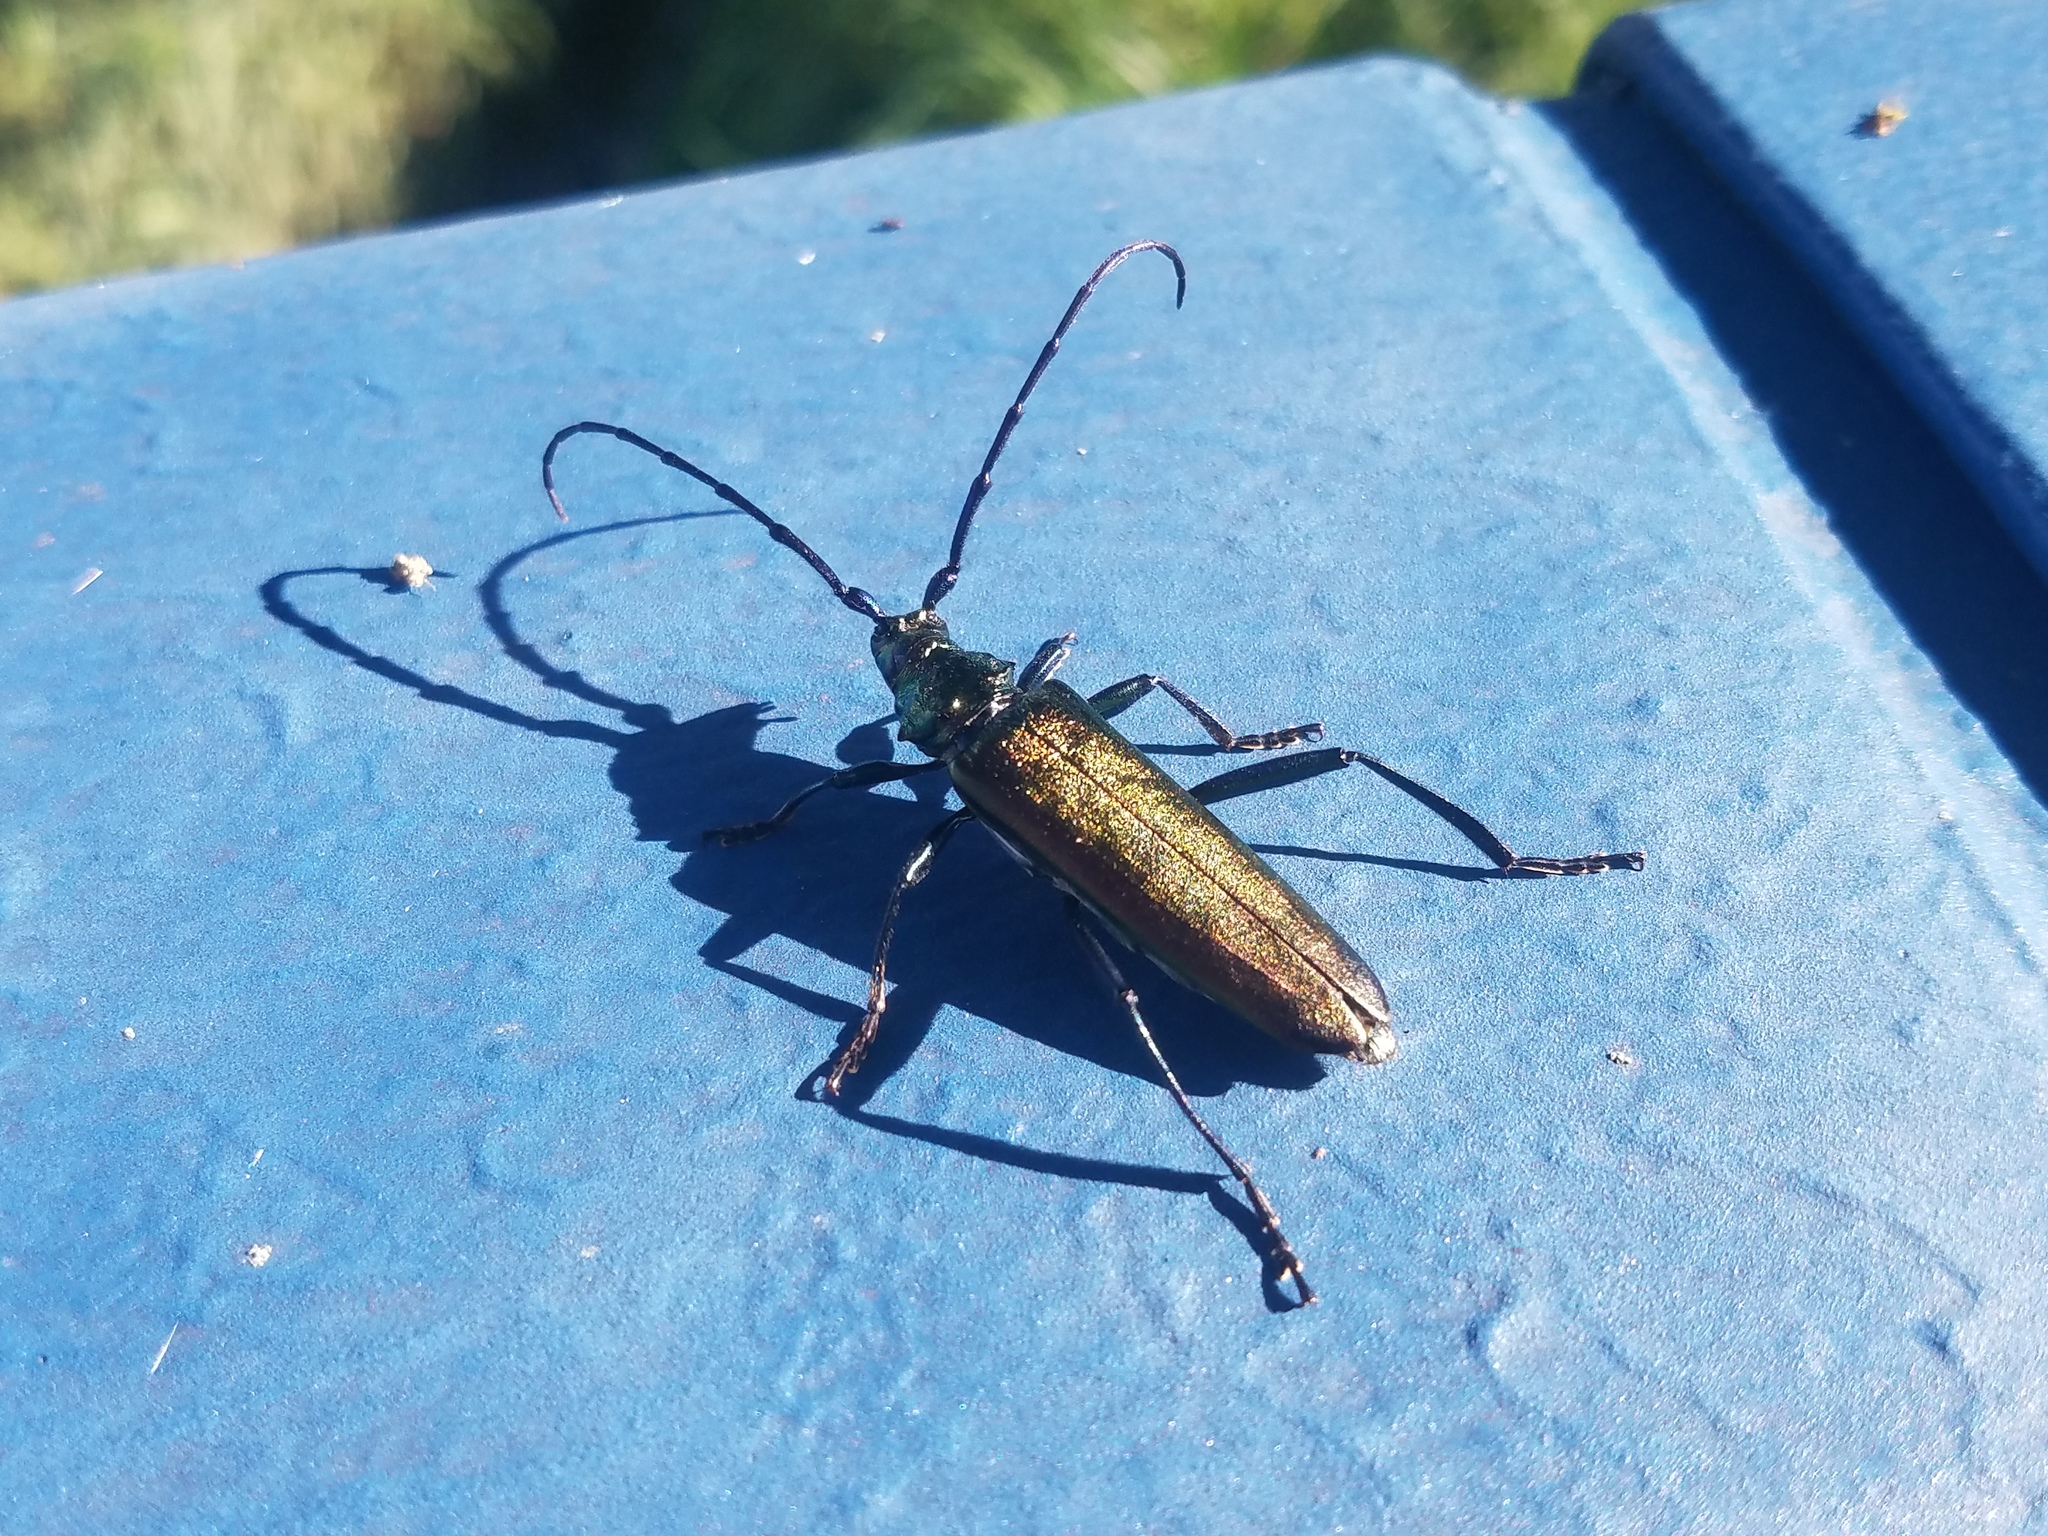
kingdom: Animalia
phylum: Arthropoda
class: Insecta
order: Coleoptera
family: Cerambycidae
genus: Aromia
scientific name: Aromia moschata
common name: Musk beetle
